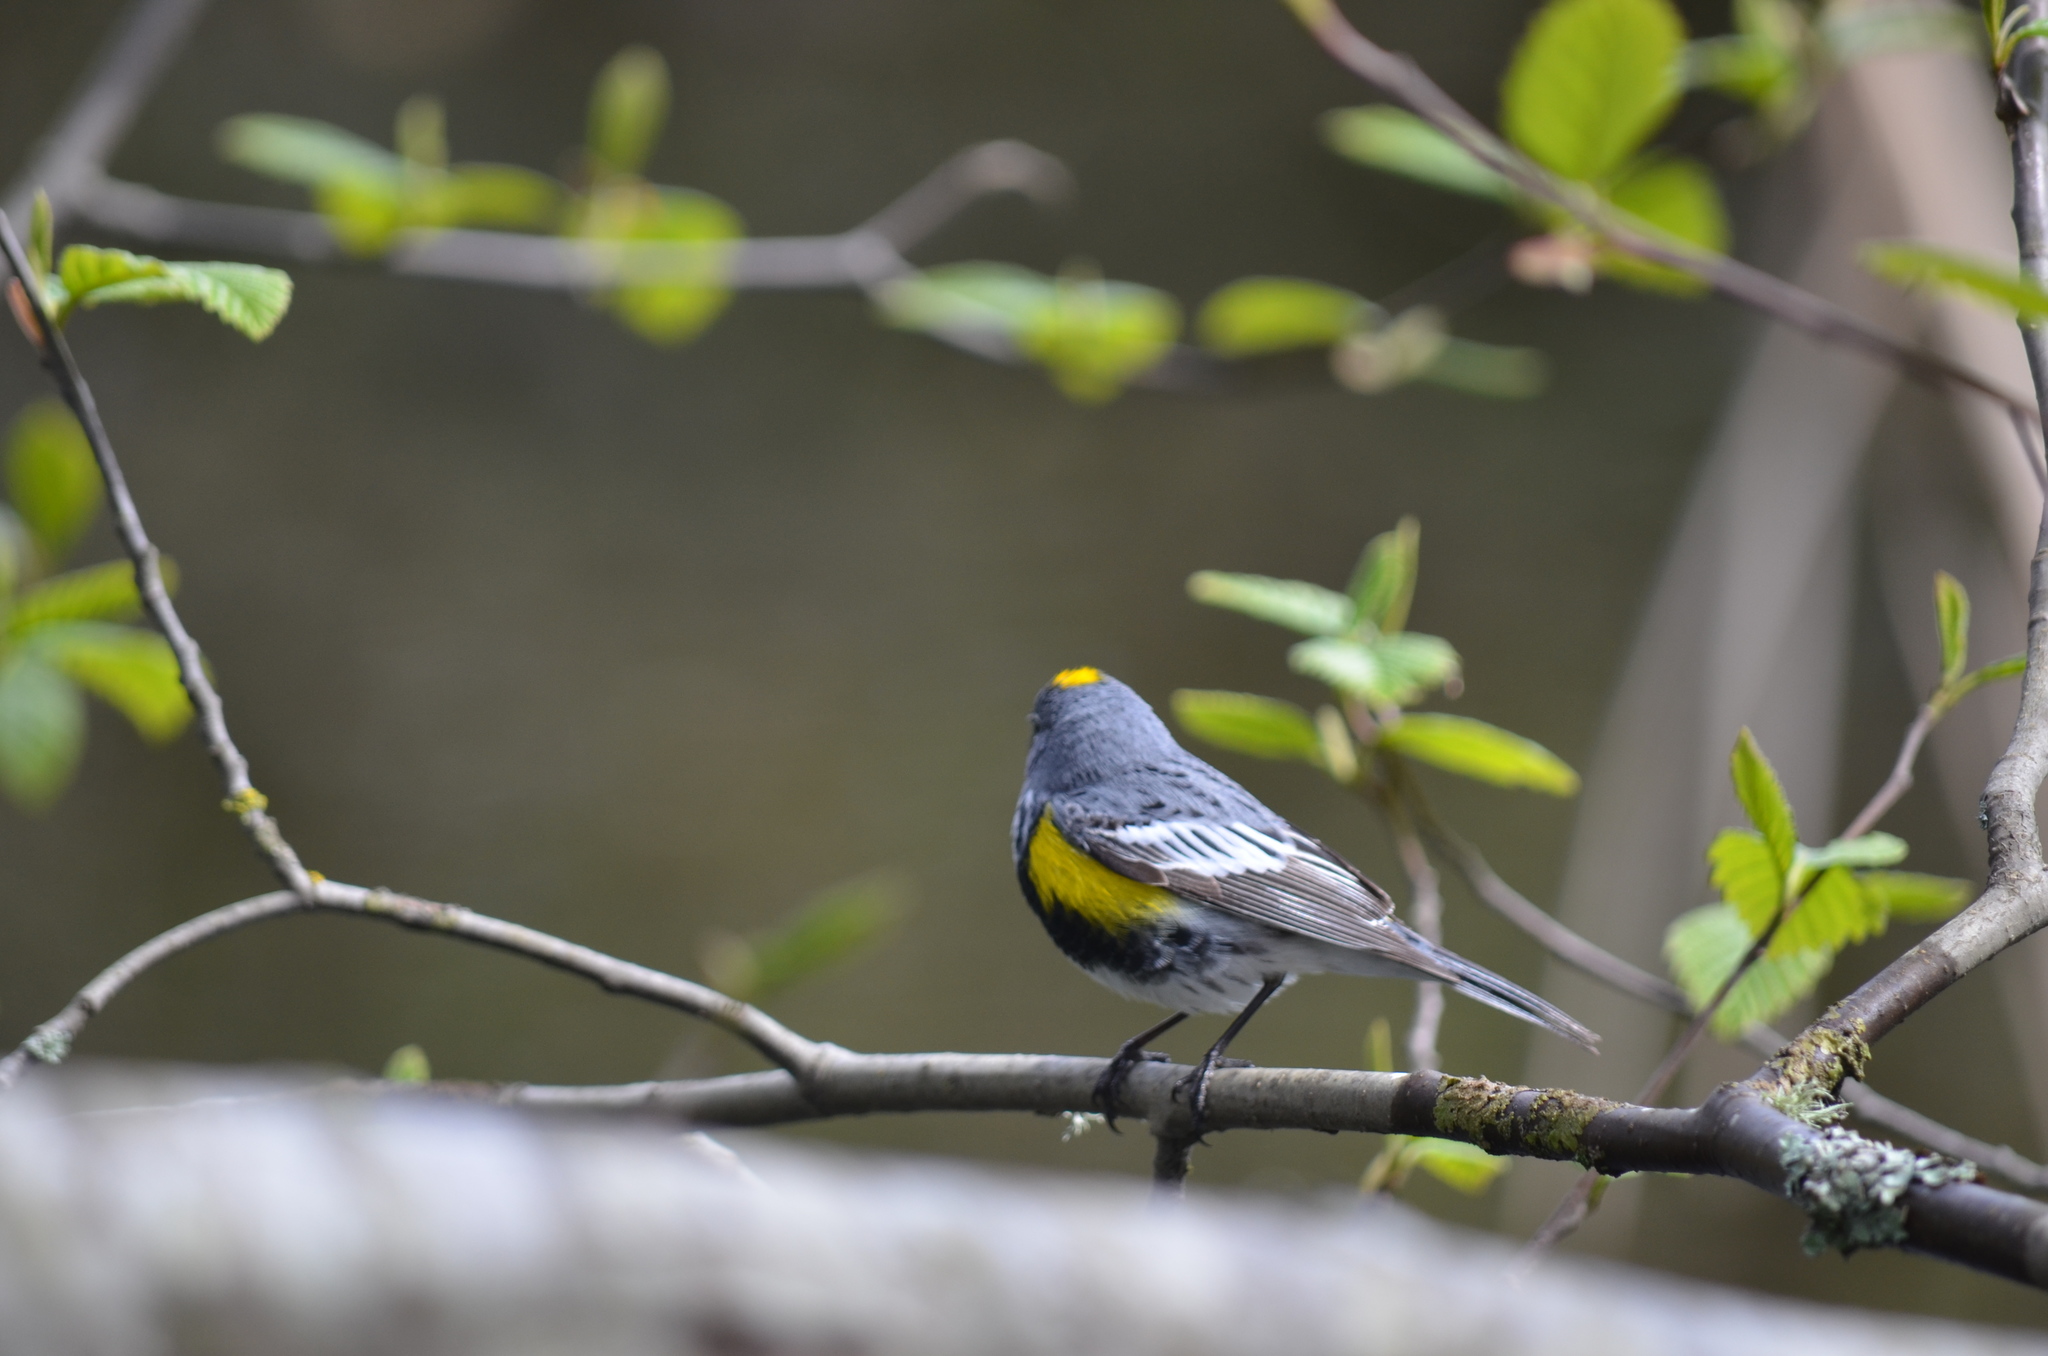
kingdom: Animalia
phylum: Chordata
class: Aves
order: Passeriformes
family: Parulidae
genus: Setophaga
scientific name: Setophaga auduboni
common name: Audubon's warbler
